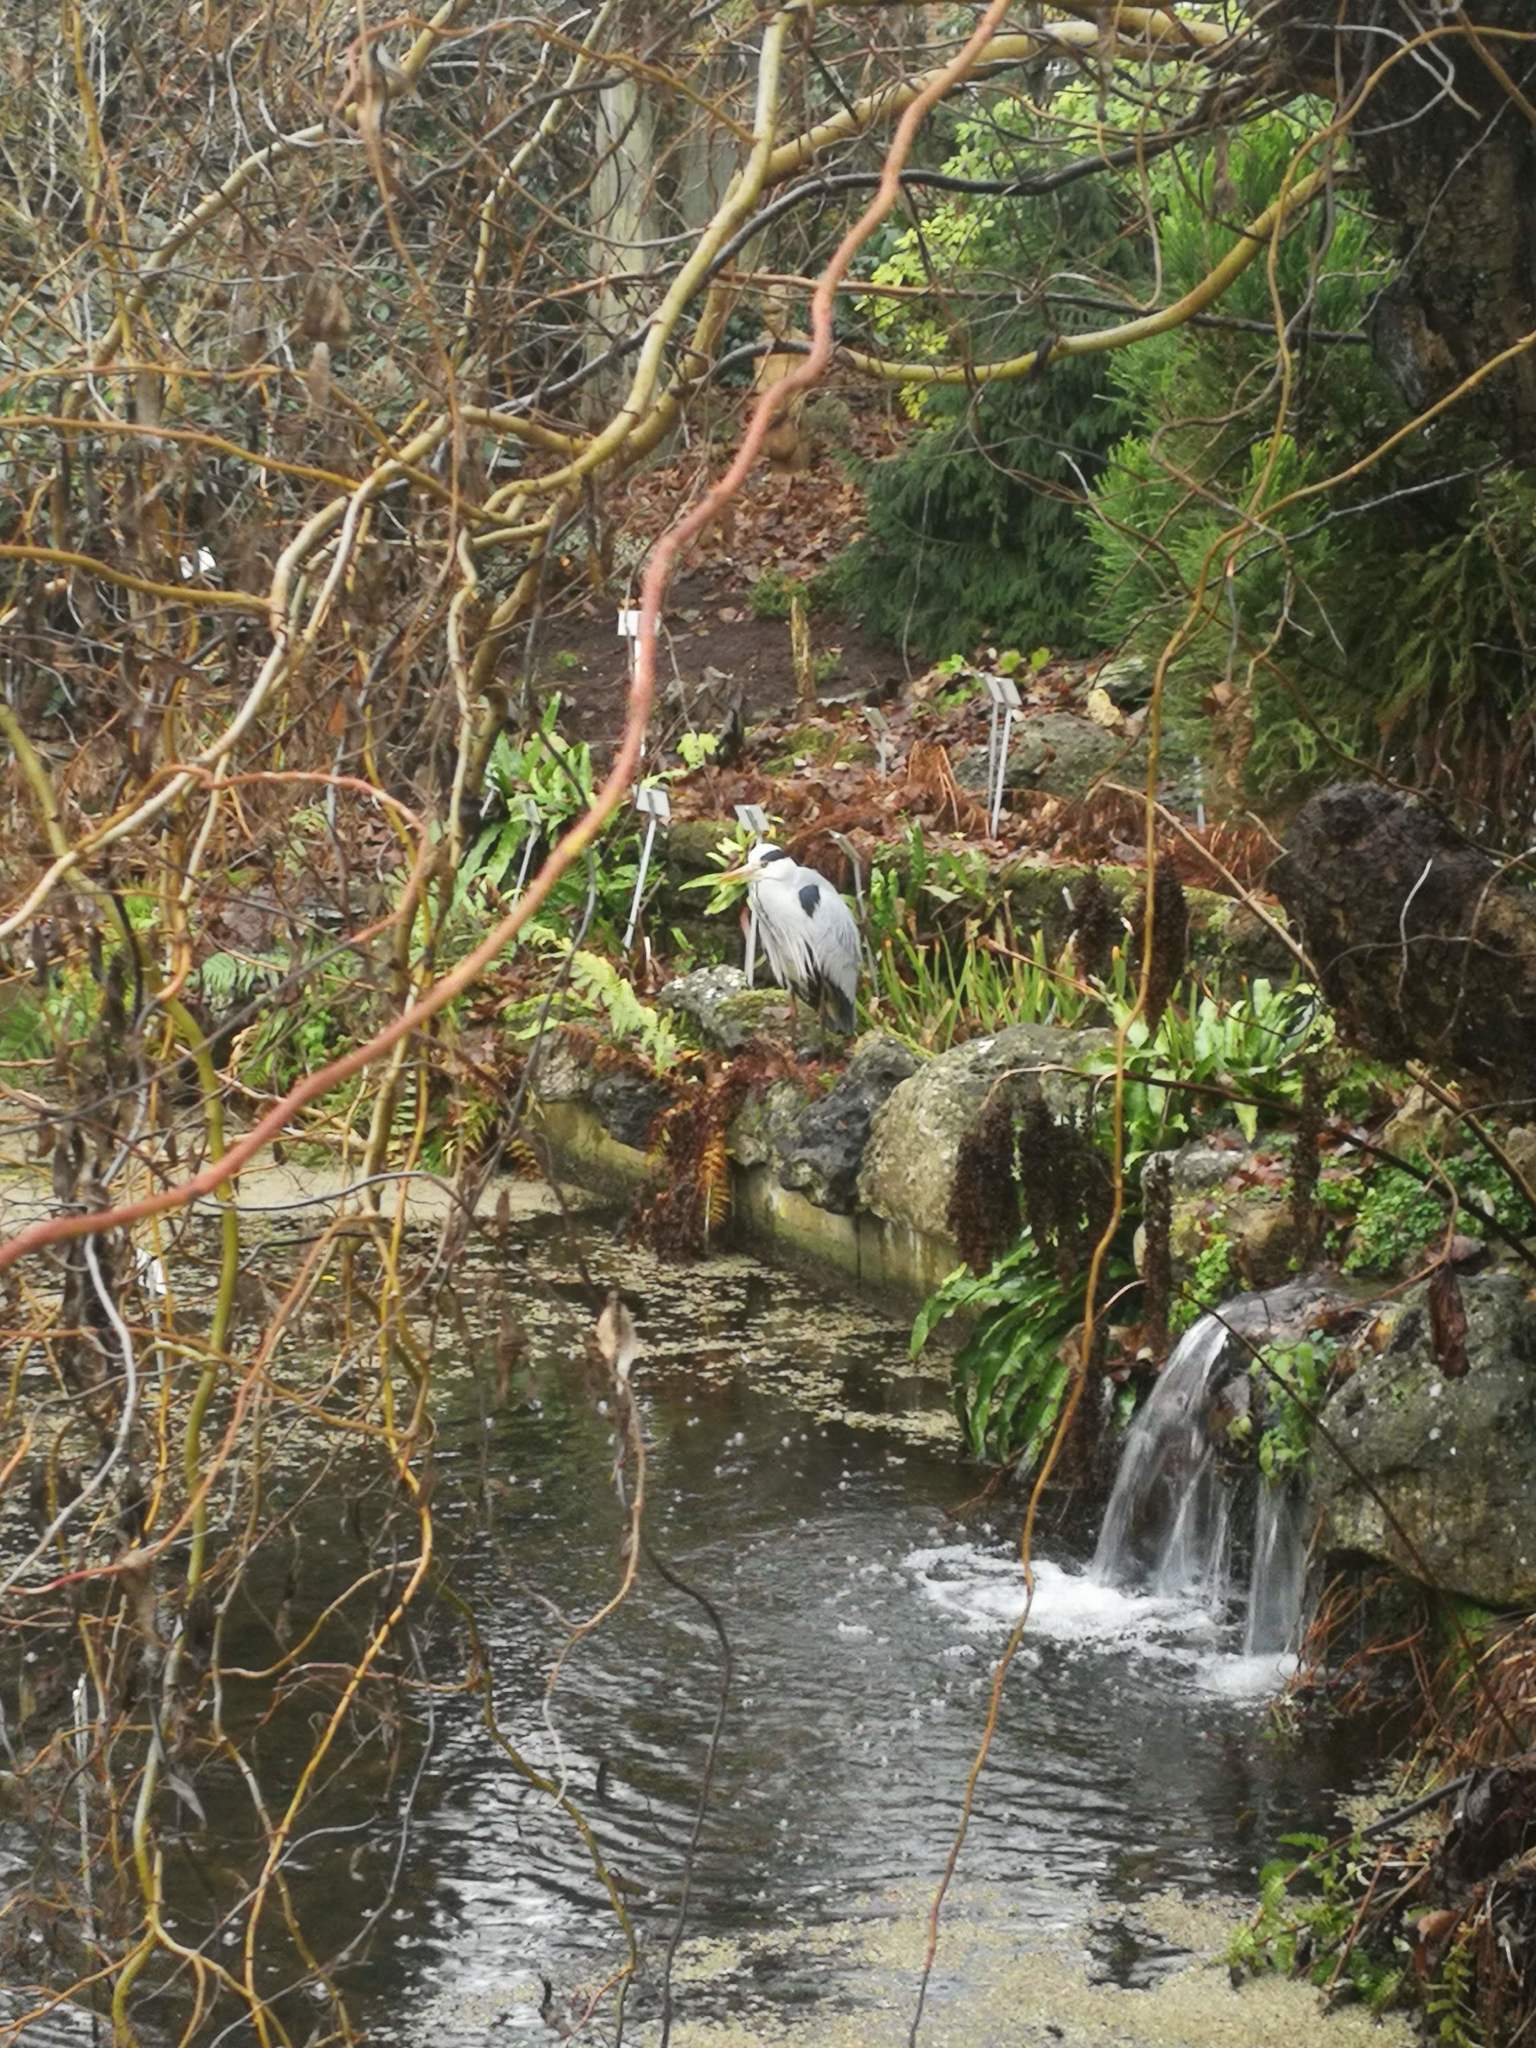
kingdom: Animalia
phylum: Chordata
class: Aves
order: Pelecaniformes
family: Ardeidae
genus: Ardea
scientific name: Ardea cinerea
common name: Grey heron
